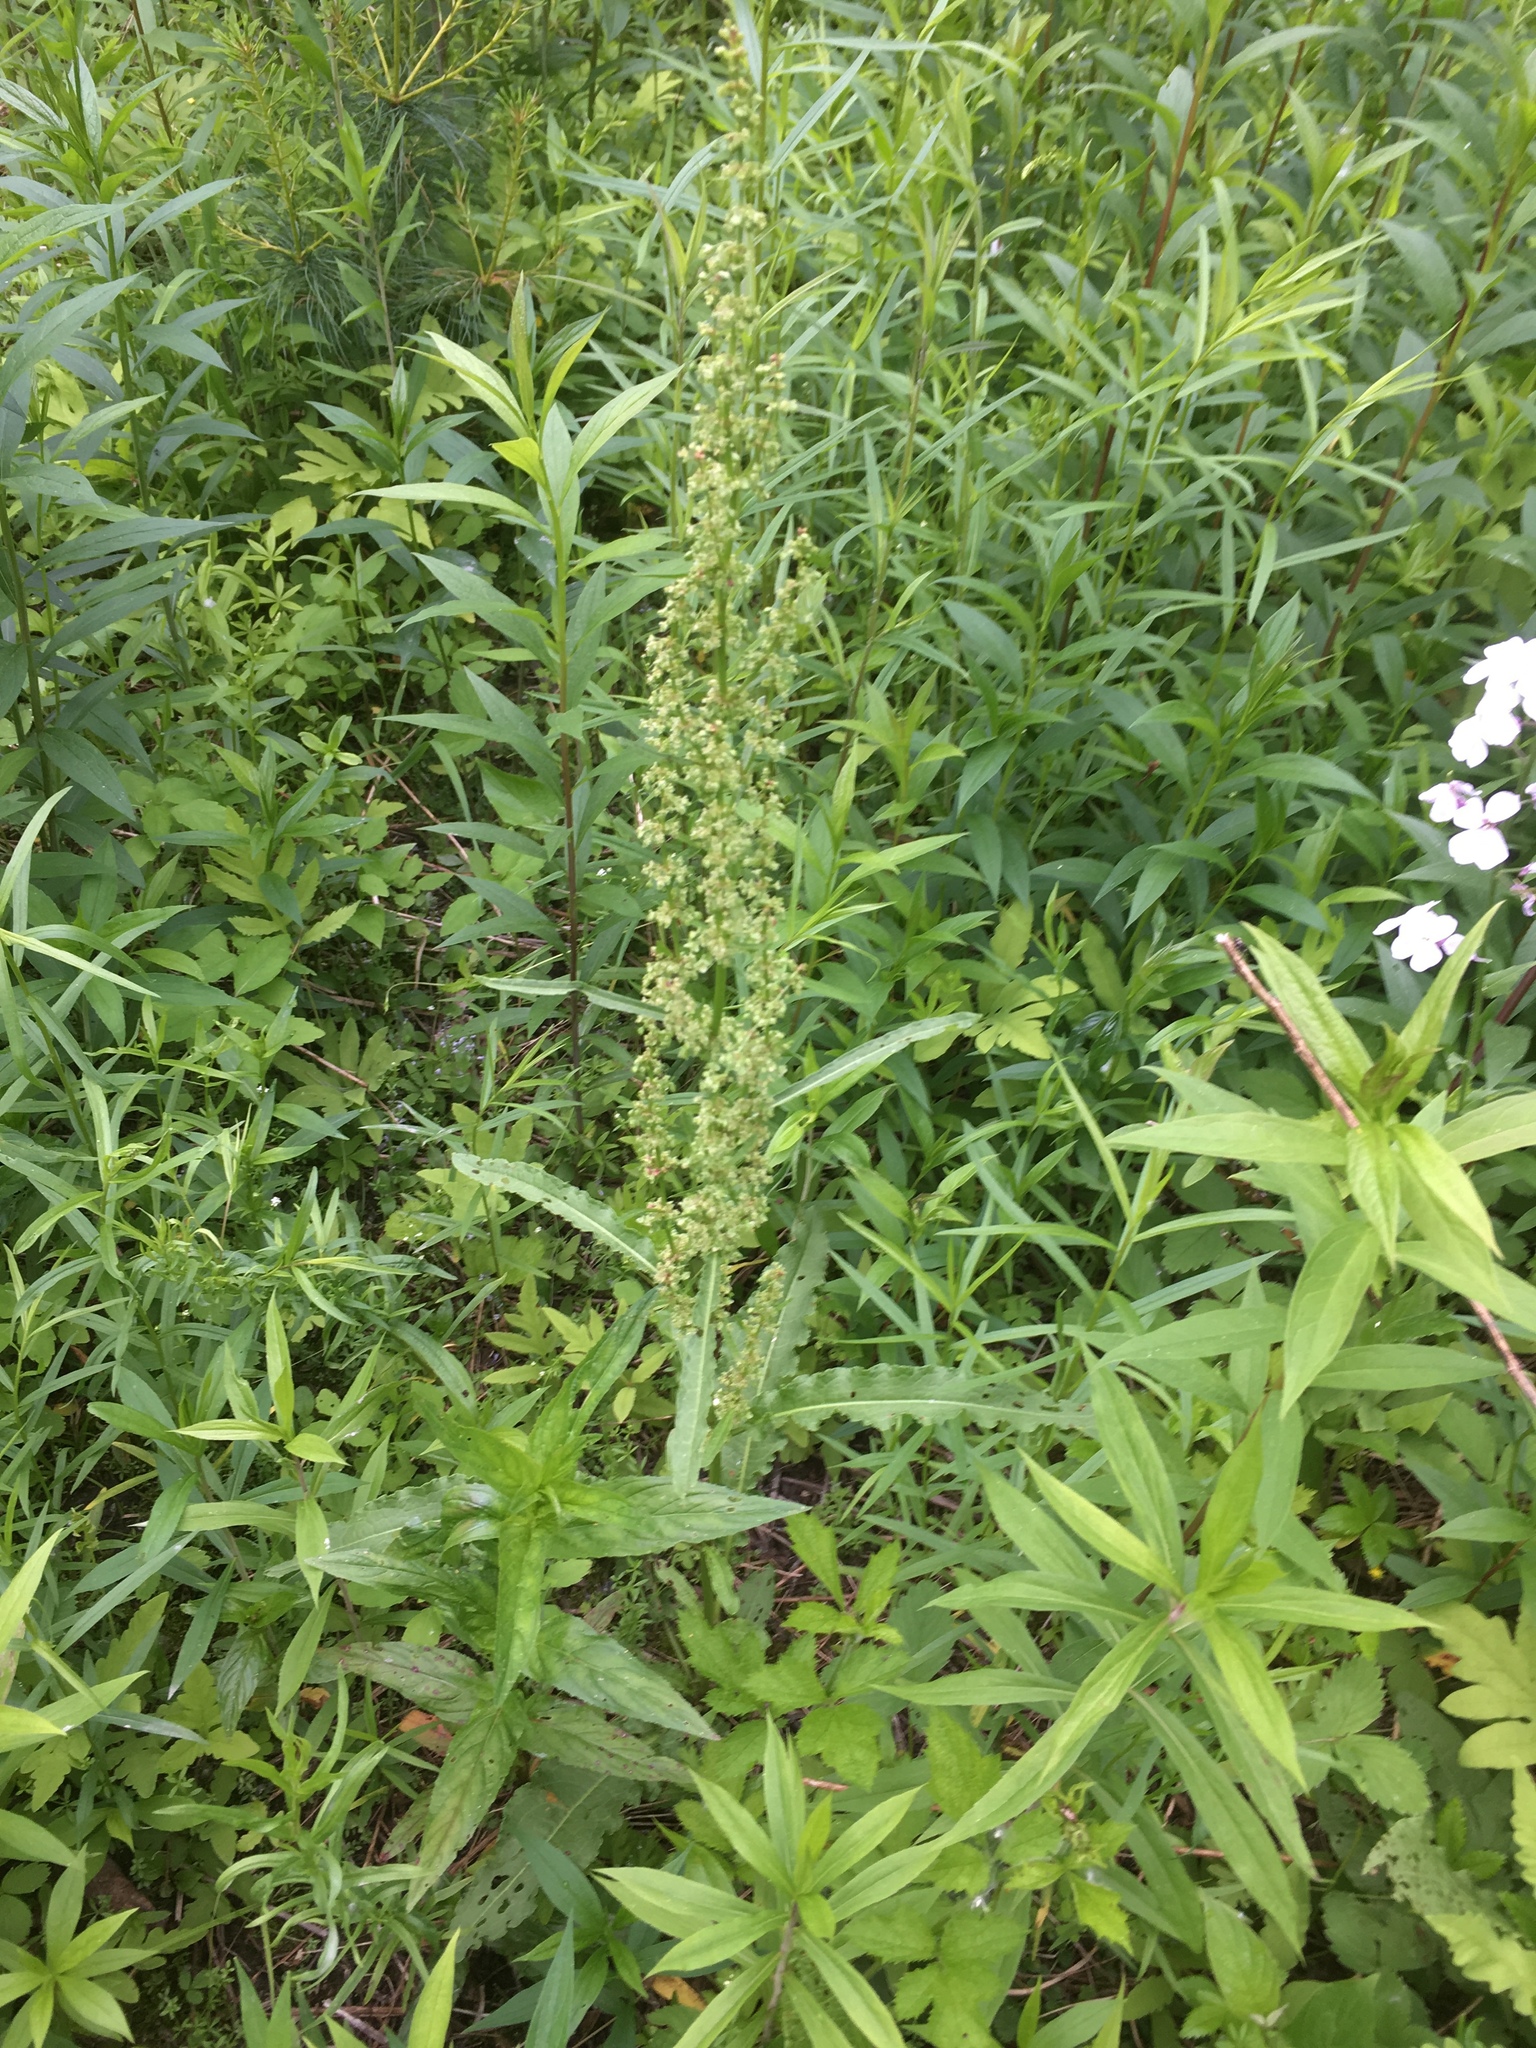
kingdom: Plantae
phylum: Tracheophyta
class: Magnoliopsida
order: Caryophyllales
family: Polygonaceae
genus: Rumex
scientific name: Rumex crispus
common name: Curled dock
